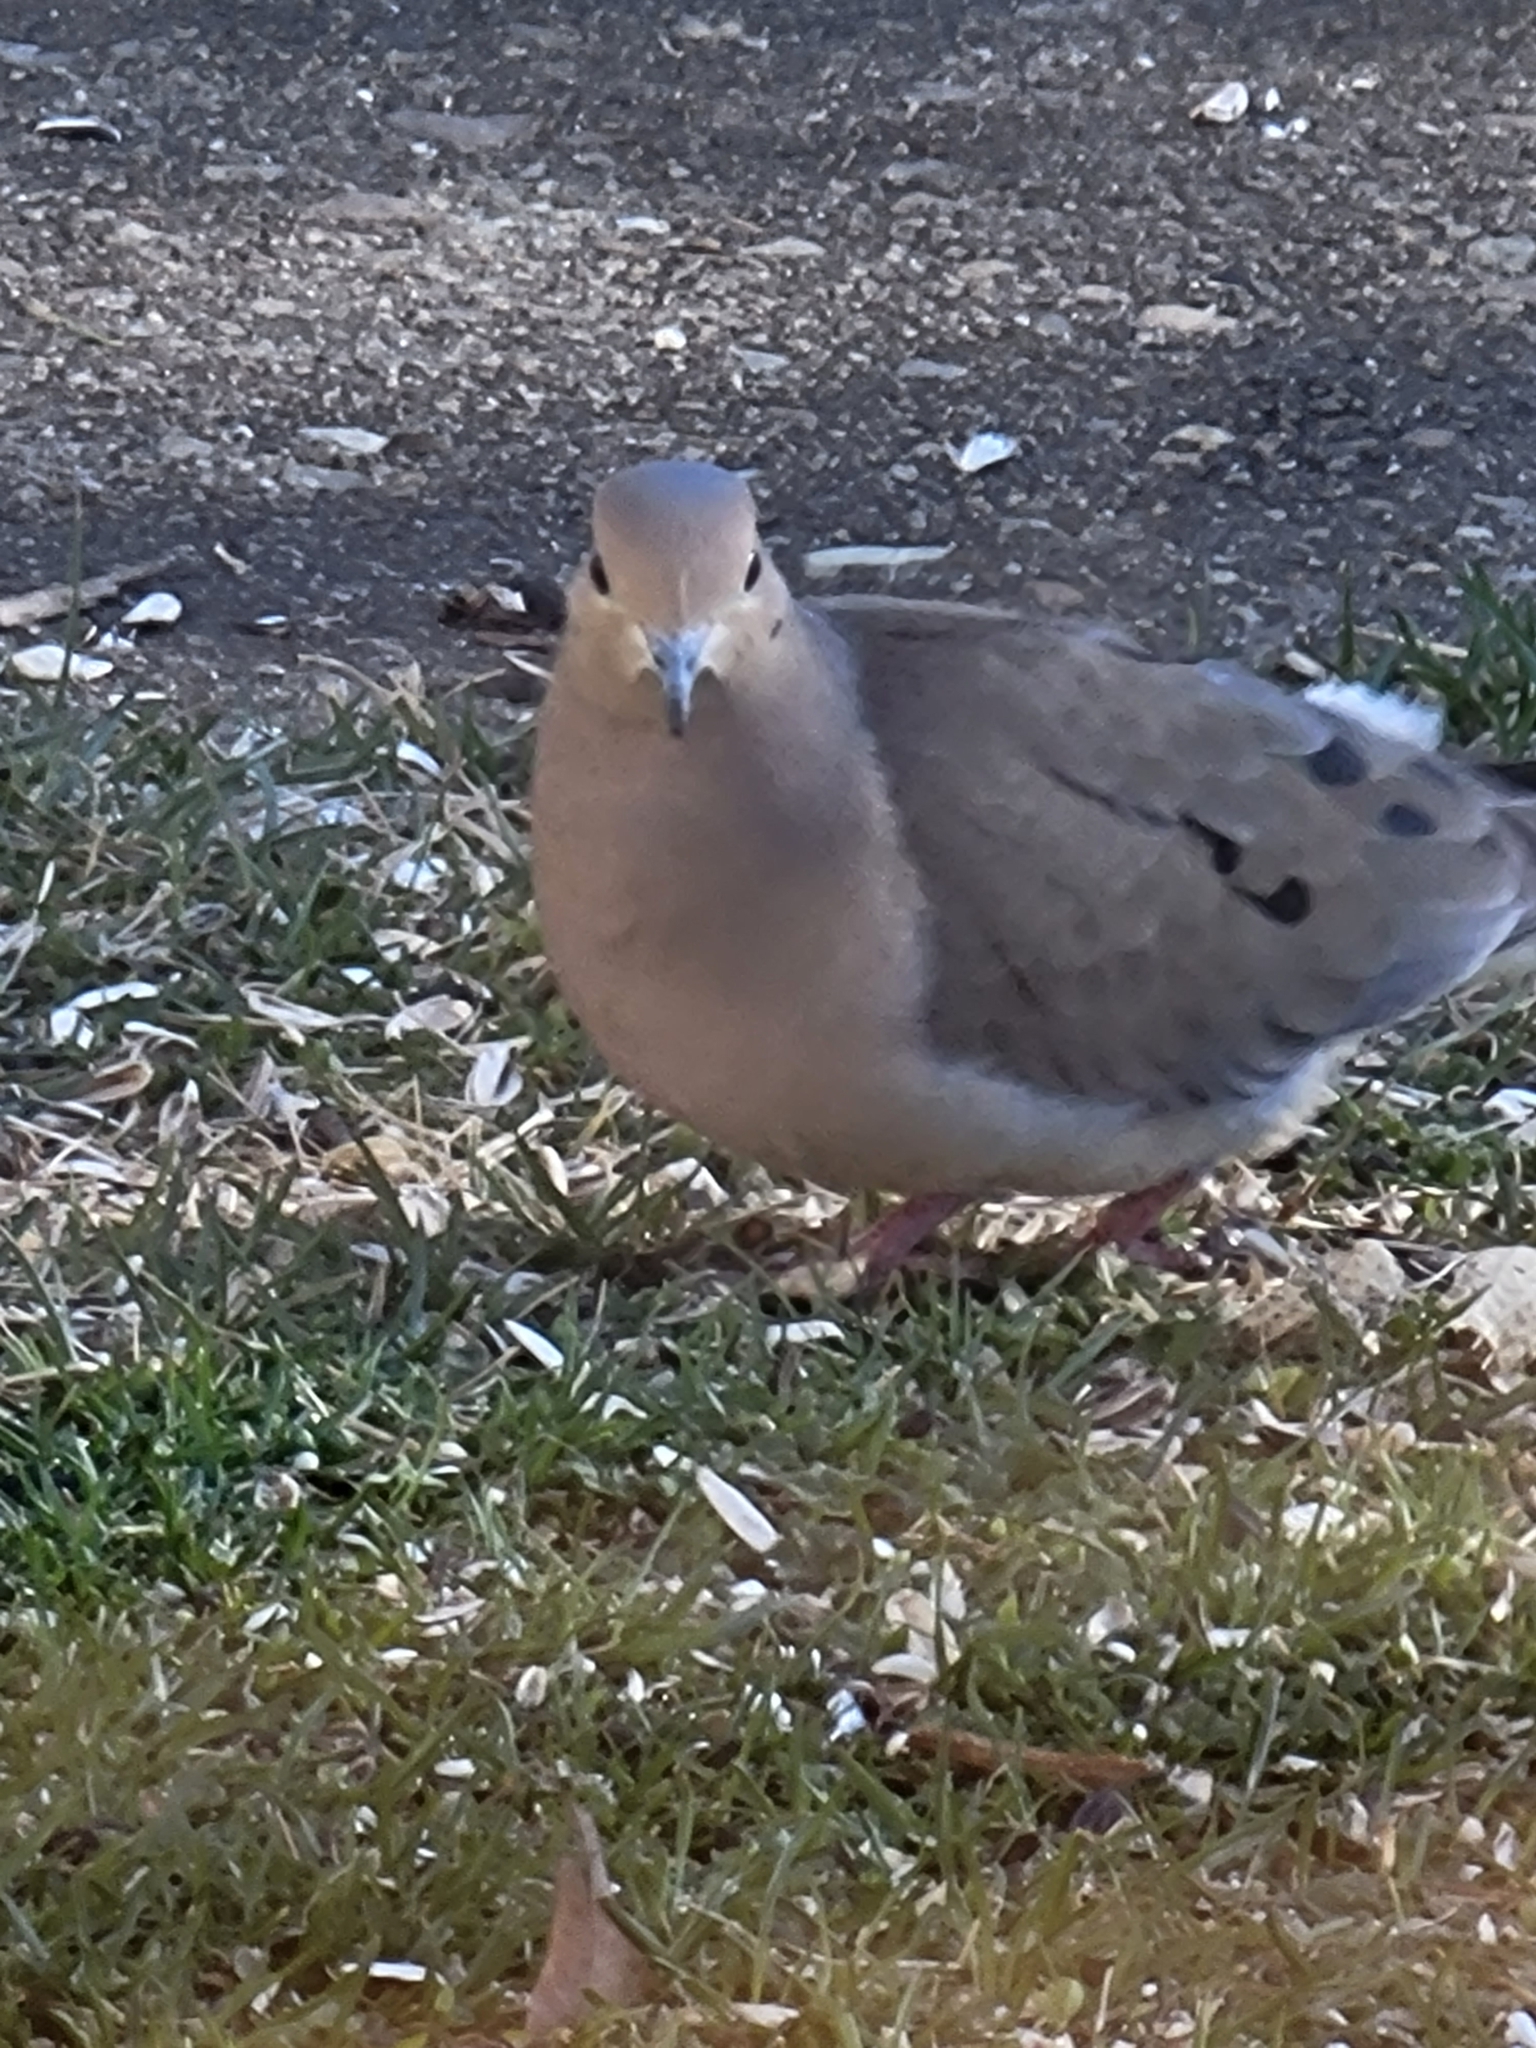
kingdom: Animalia
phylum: Chordata
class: Aves
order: Columbiformes
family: Columbidae
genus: Zenaida
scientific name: Zenaida macroura
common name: Mourning dove
